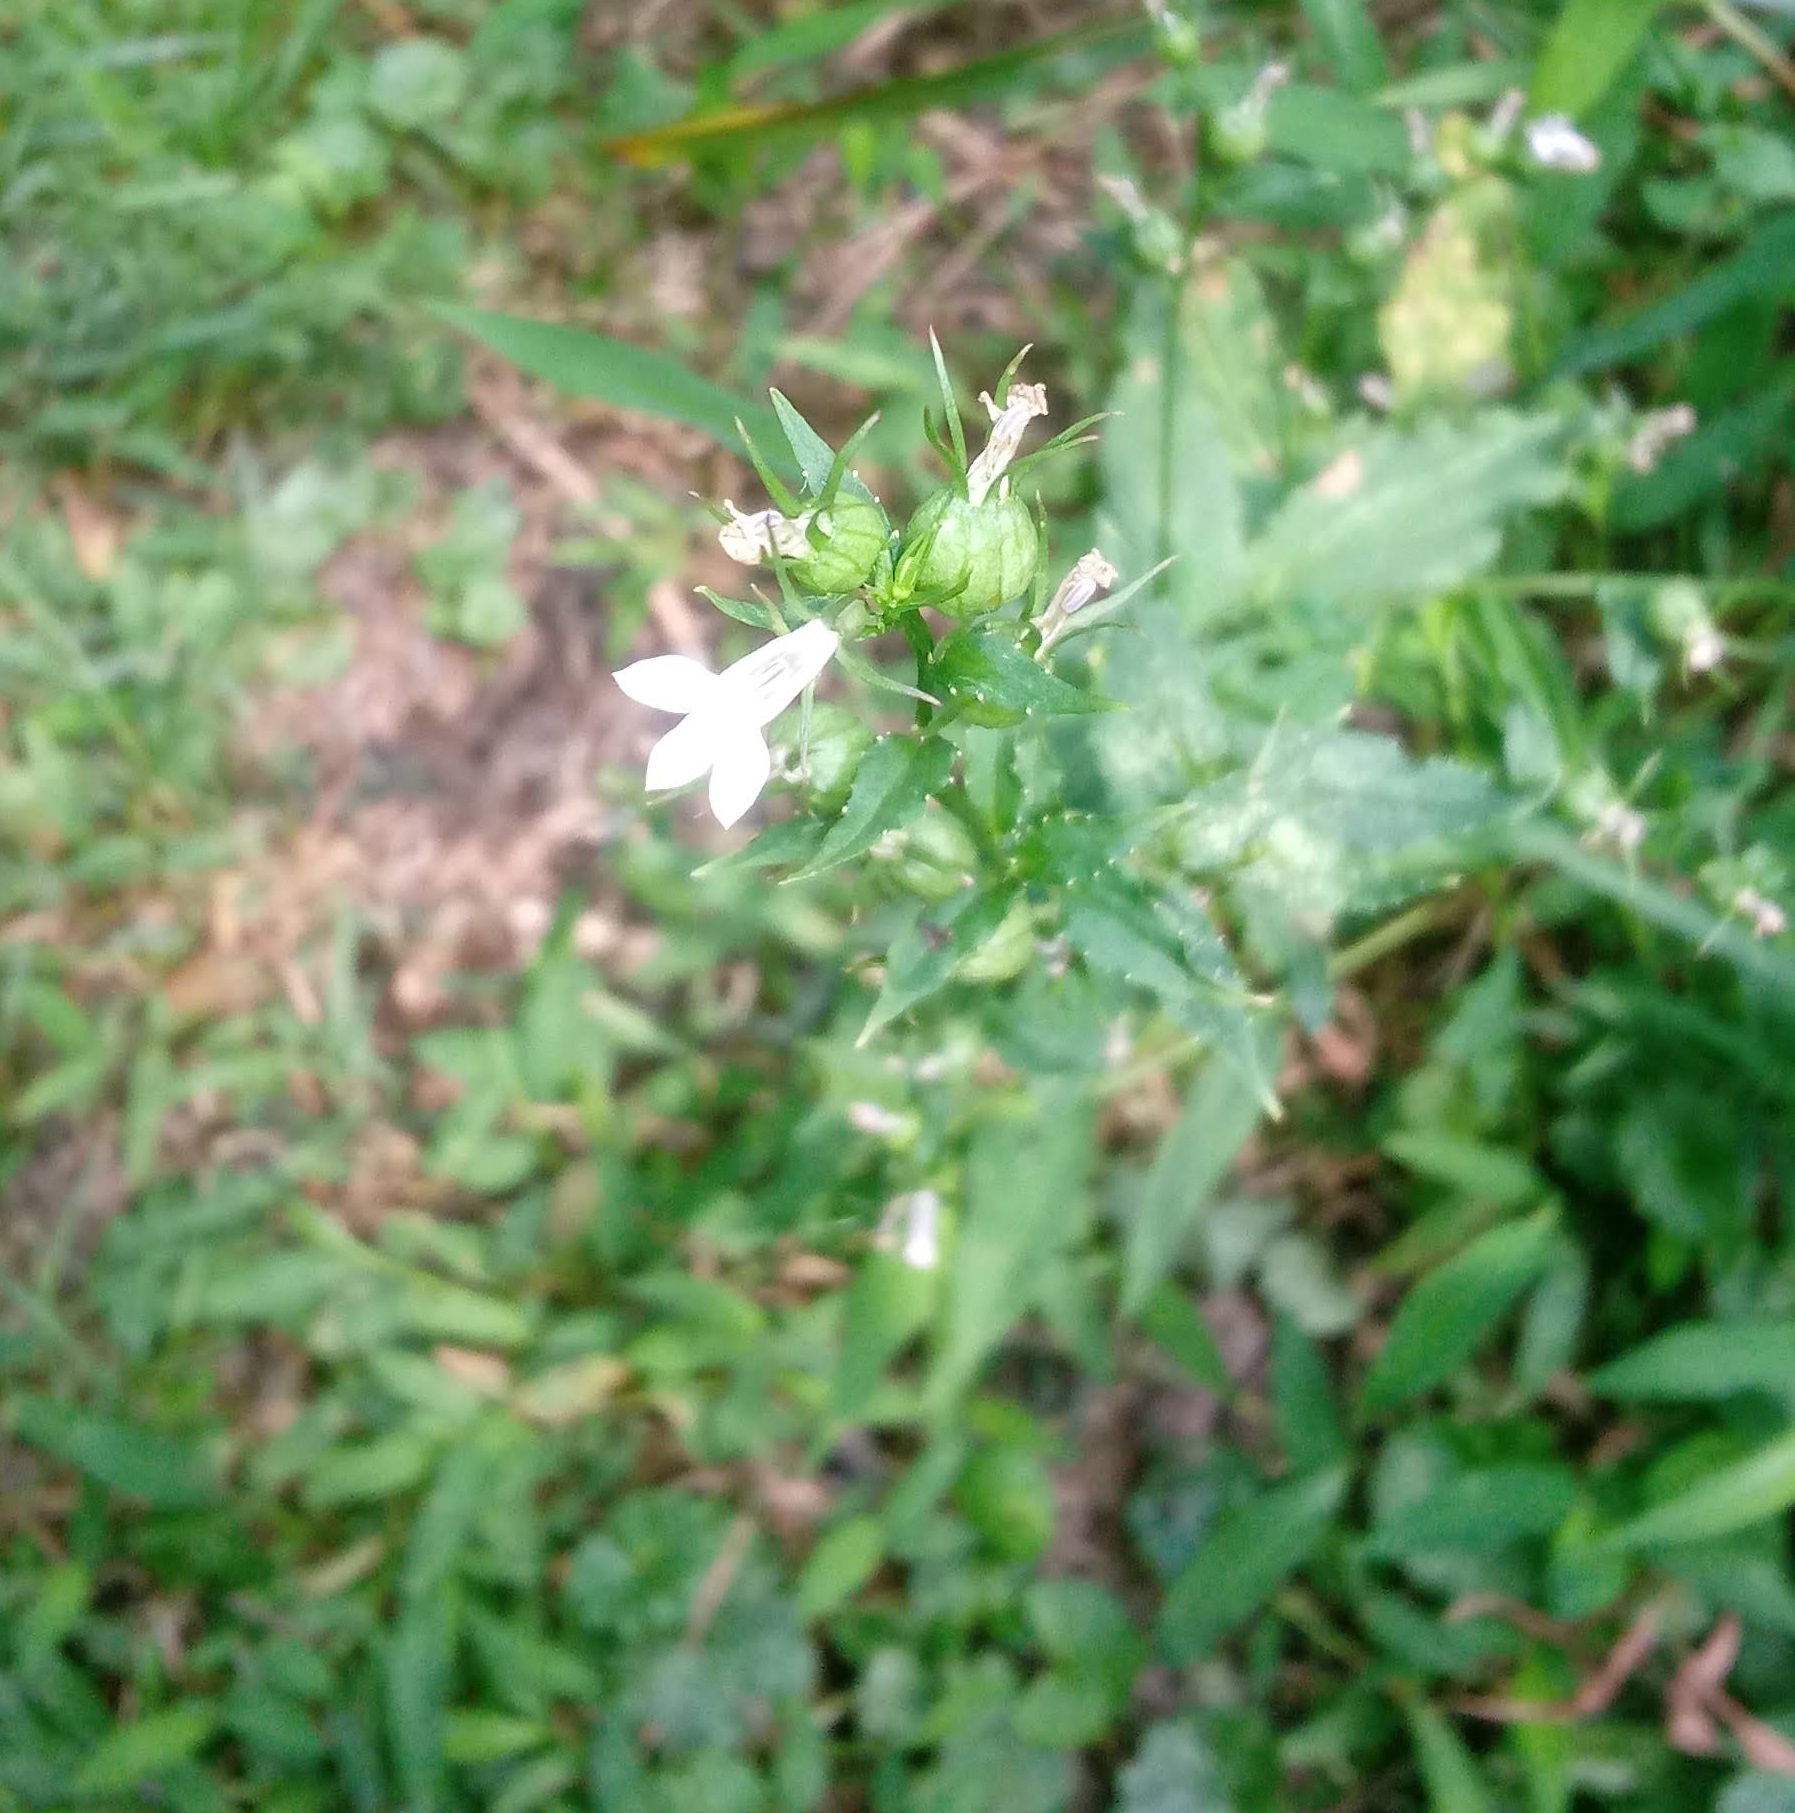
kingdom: Plantae
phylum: Tracheophyta
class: Magnoliopsida
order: Asterales
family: Campanulaceae
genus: Lobelia
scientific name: Lobelia inflata
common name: Indian tobacco
